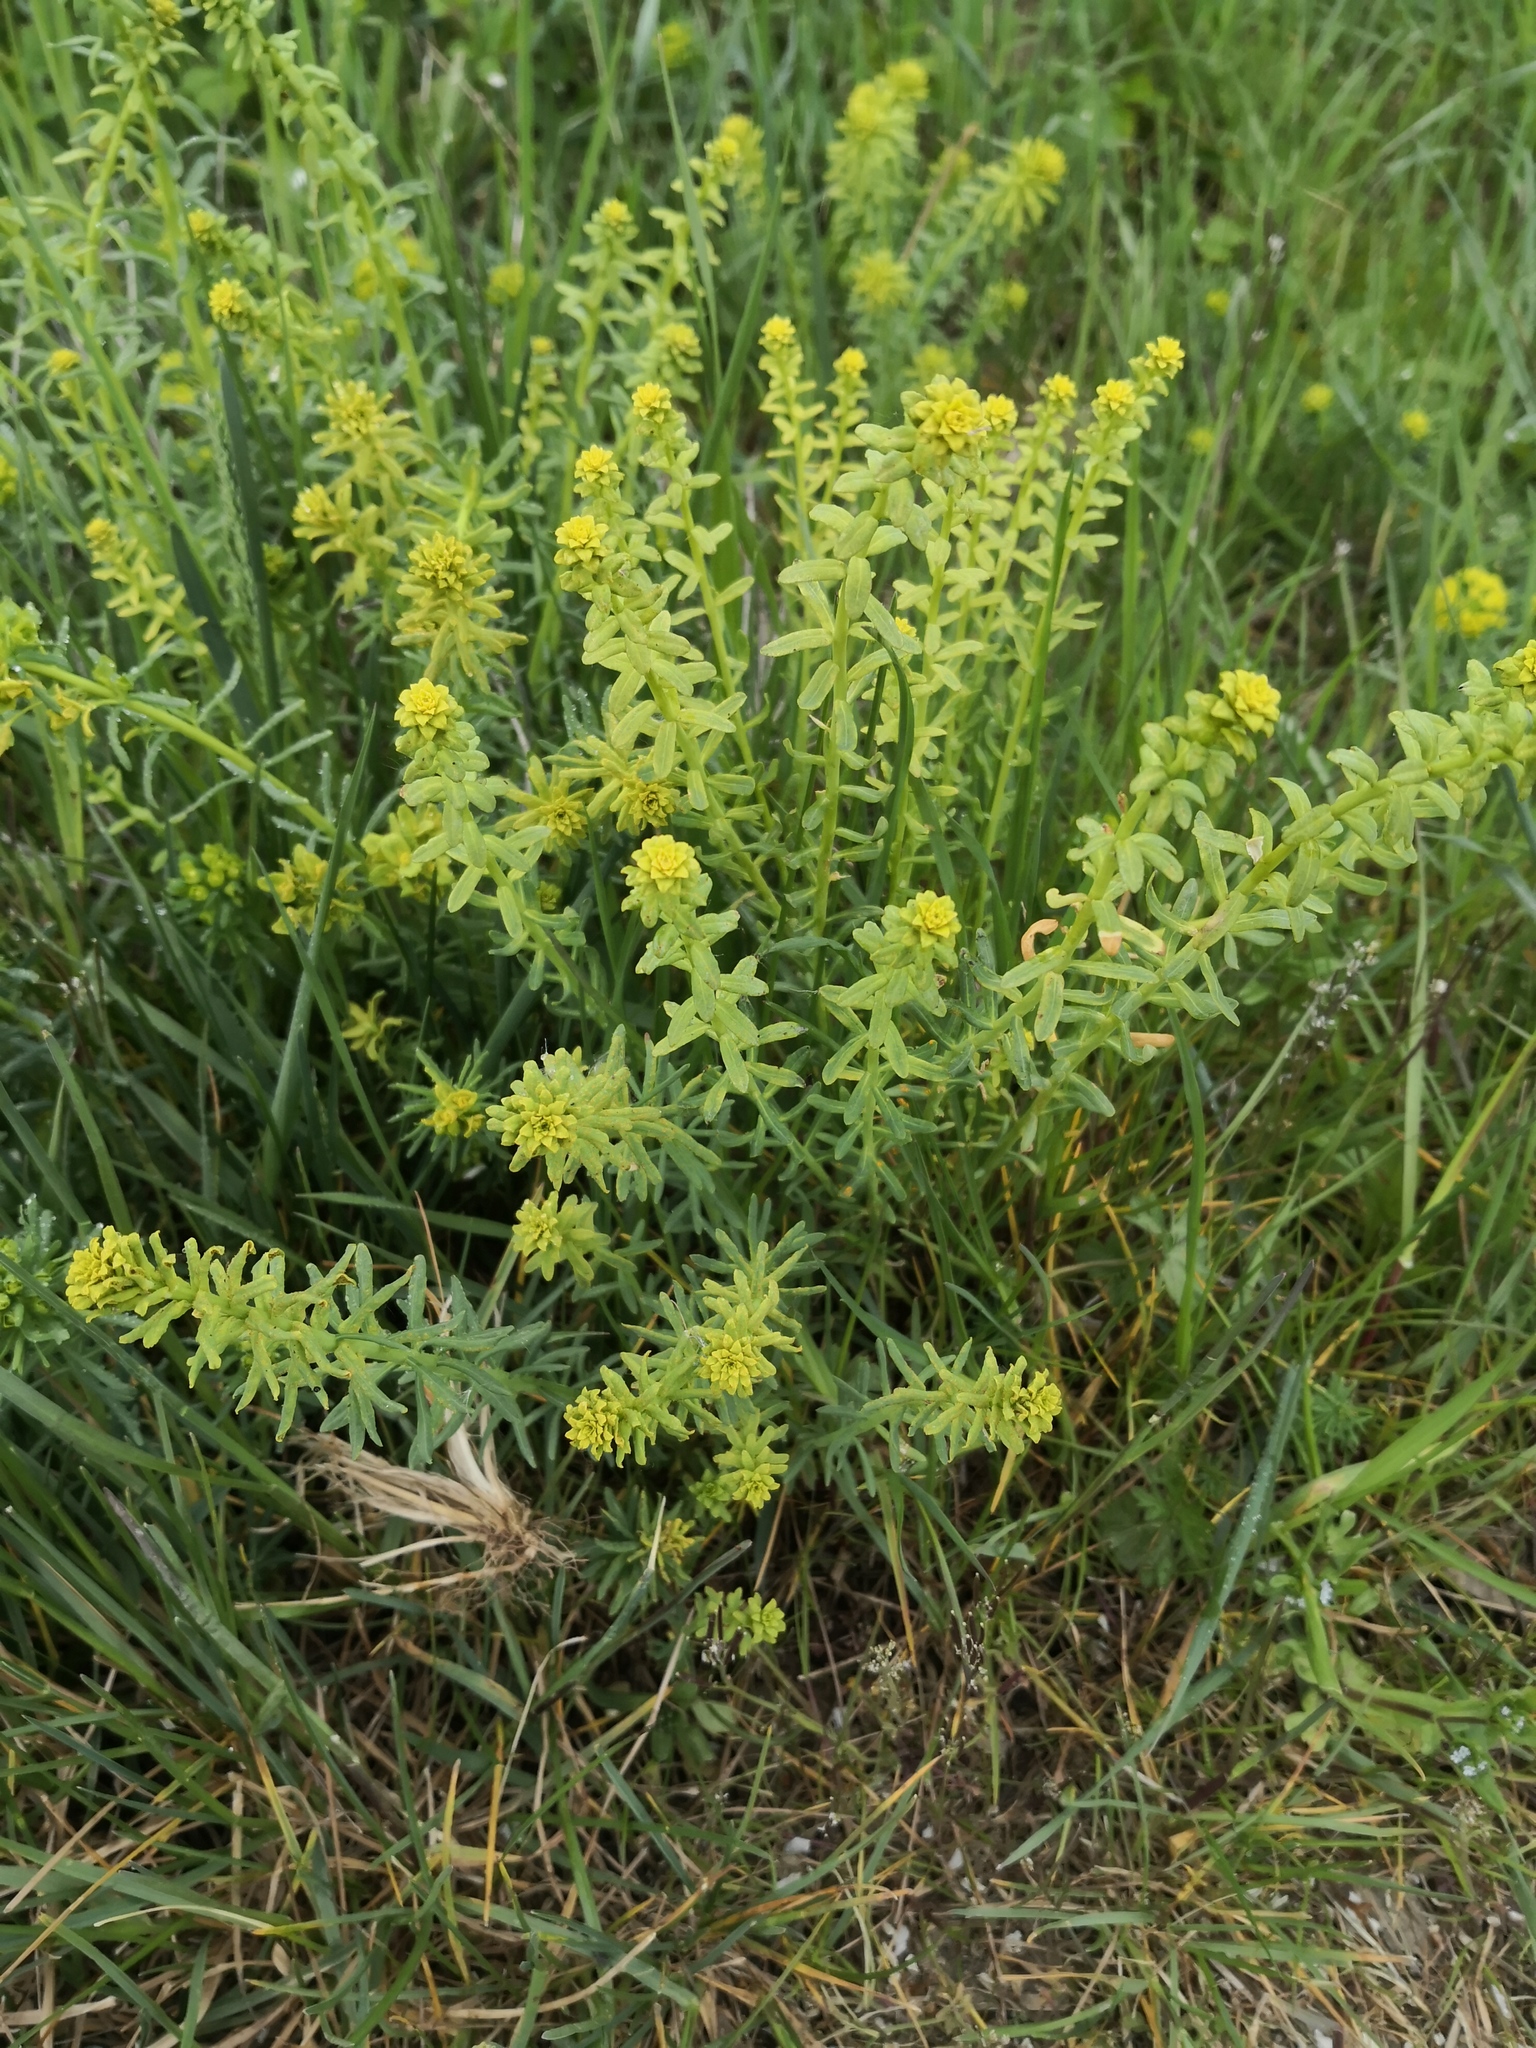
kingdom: Plantae
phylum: Tracheophyta
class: Magnoliopsida
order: Malpighiales
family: Euphorbiaceae
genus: Euphorbia
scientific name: Euphorbia cyparissias
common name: Cypress spurge
